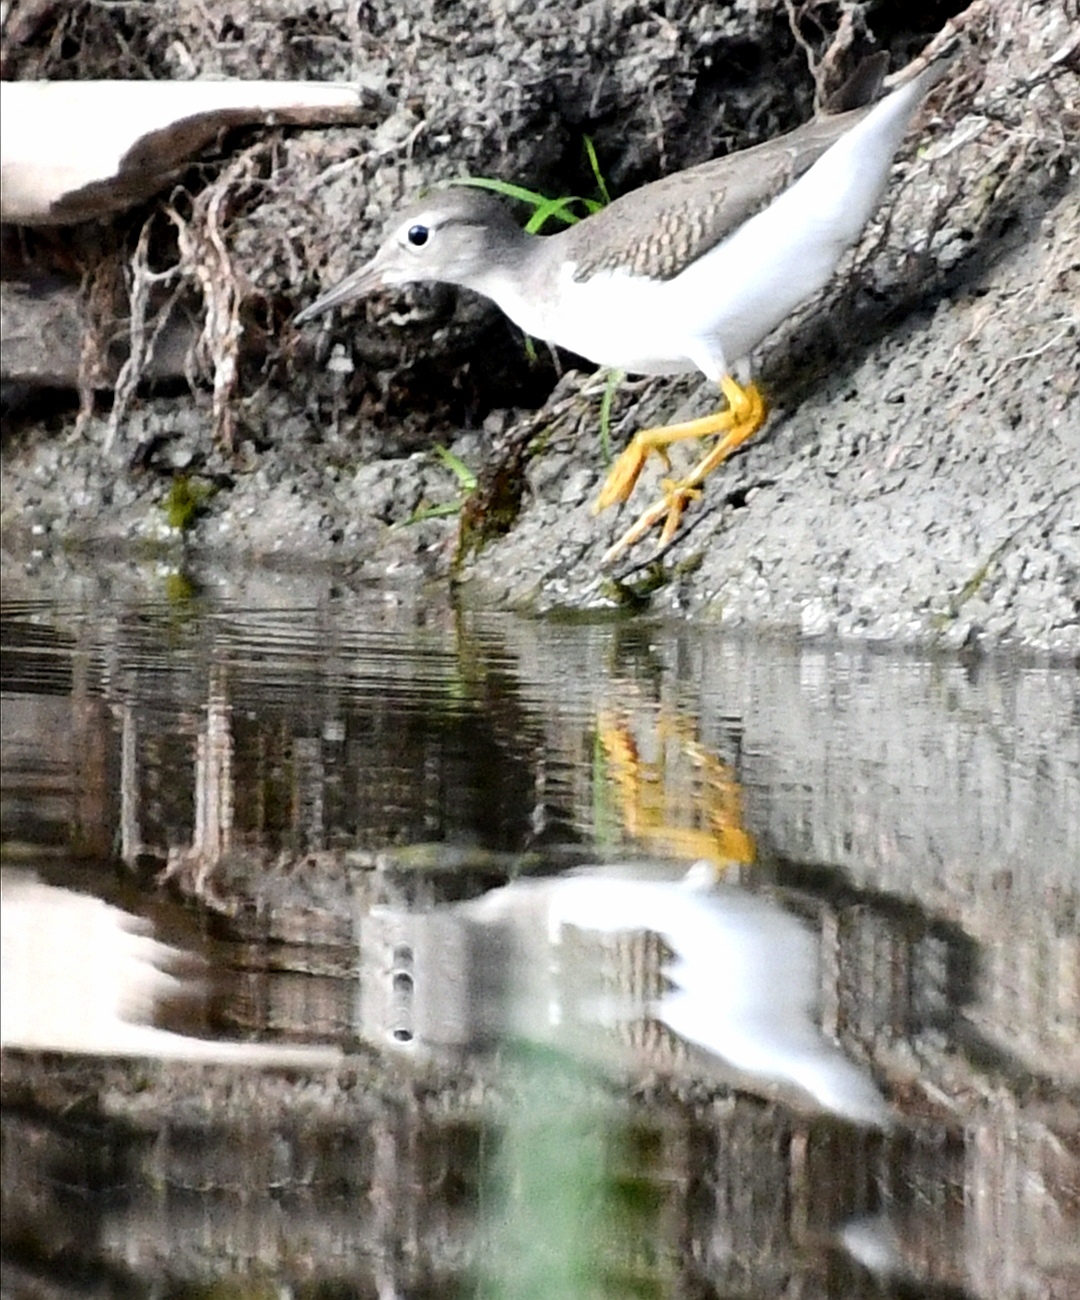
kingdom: Animalia
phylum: Chordata
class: Aves
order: Charadriiformes
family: Scolopacidae
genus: Actitis
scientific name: Actitis macularius
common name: Spotted sandpiper
